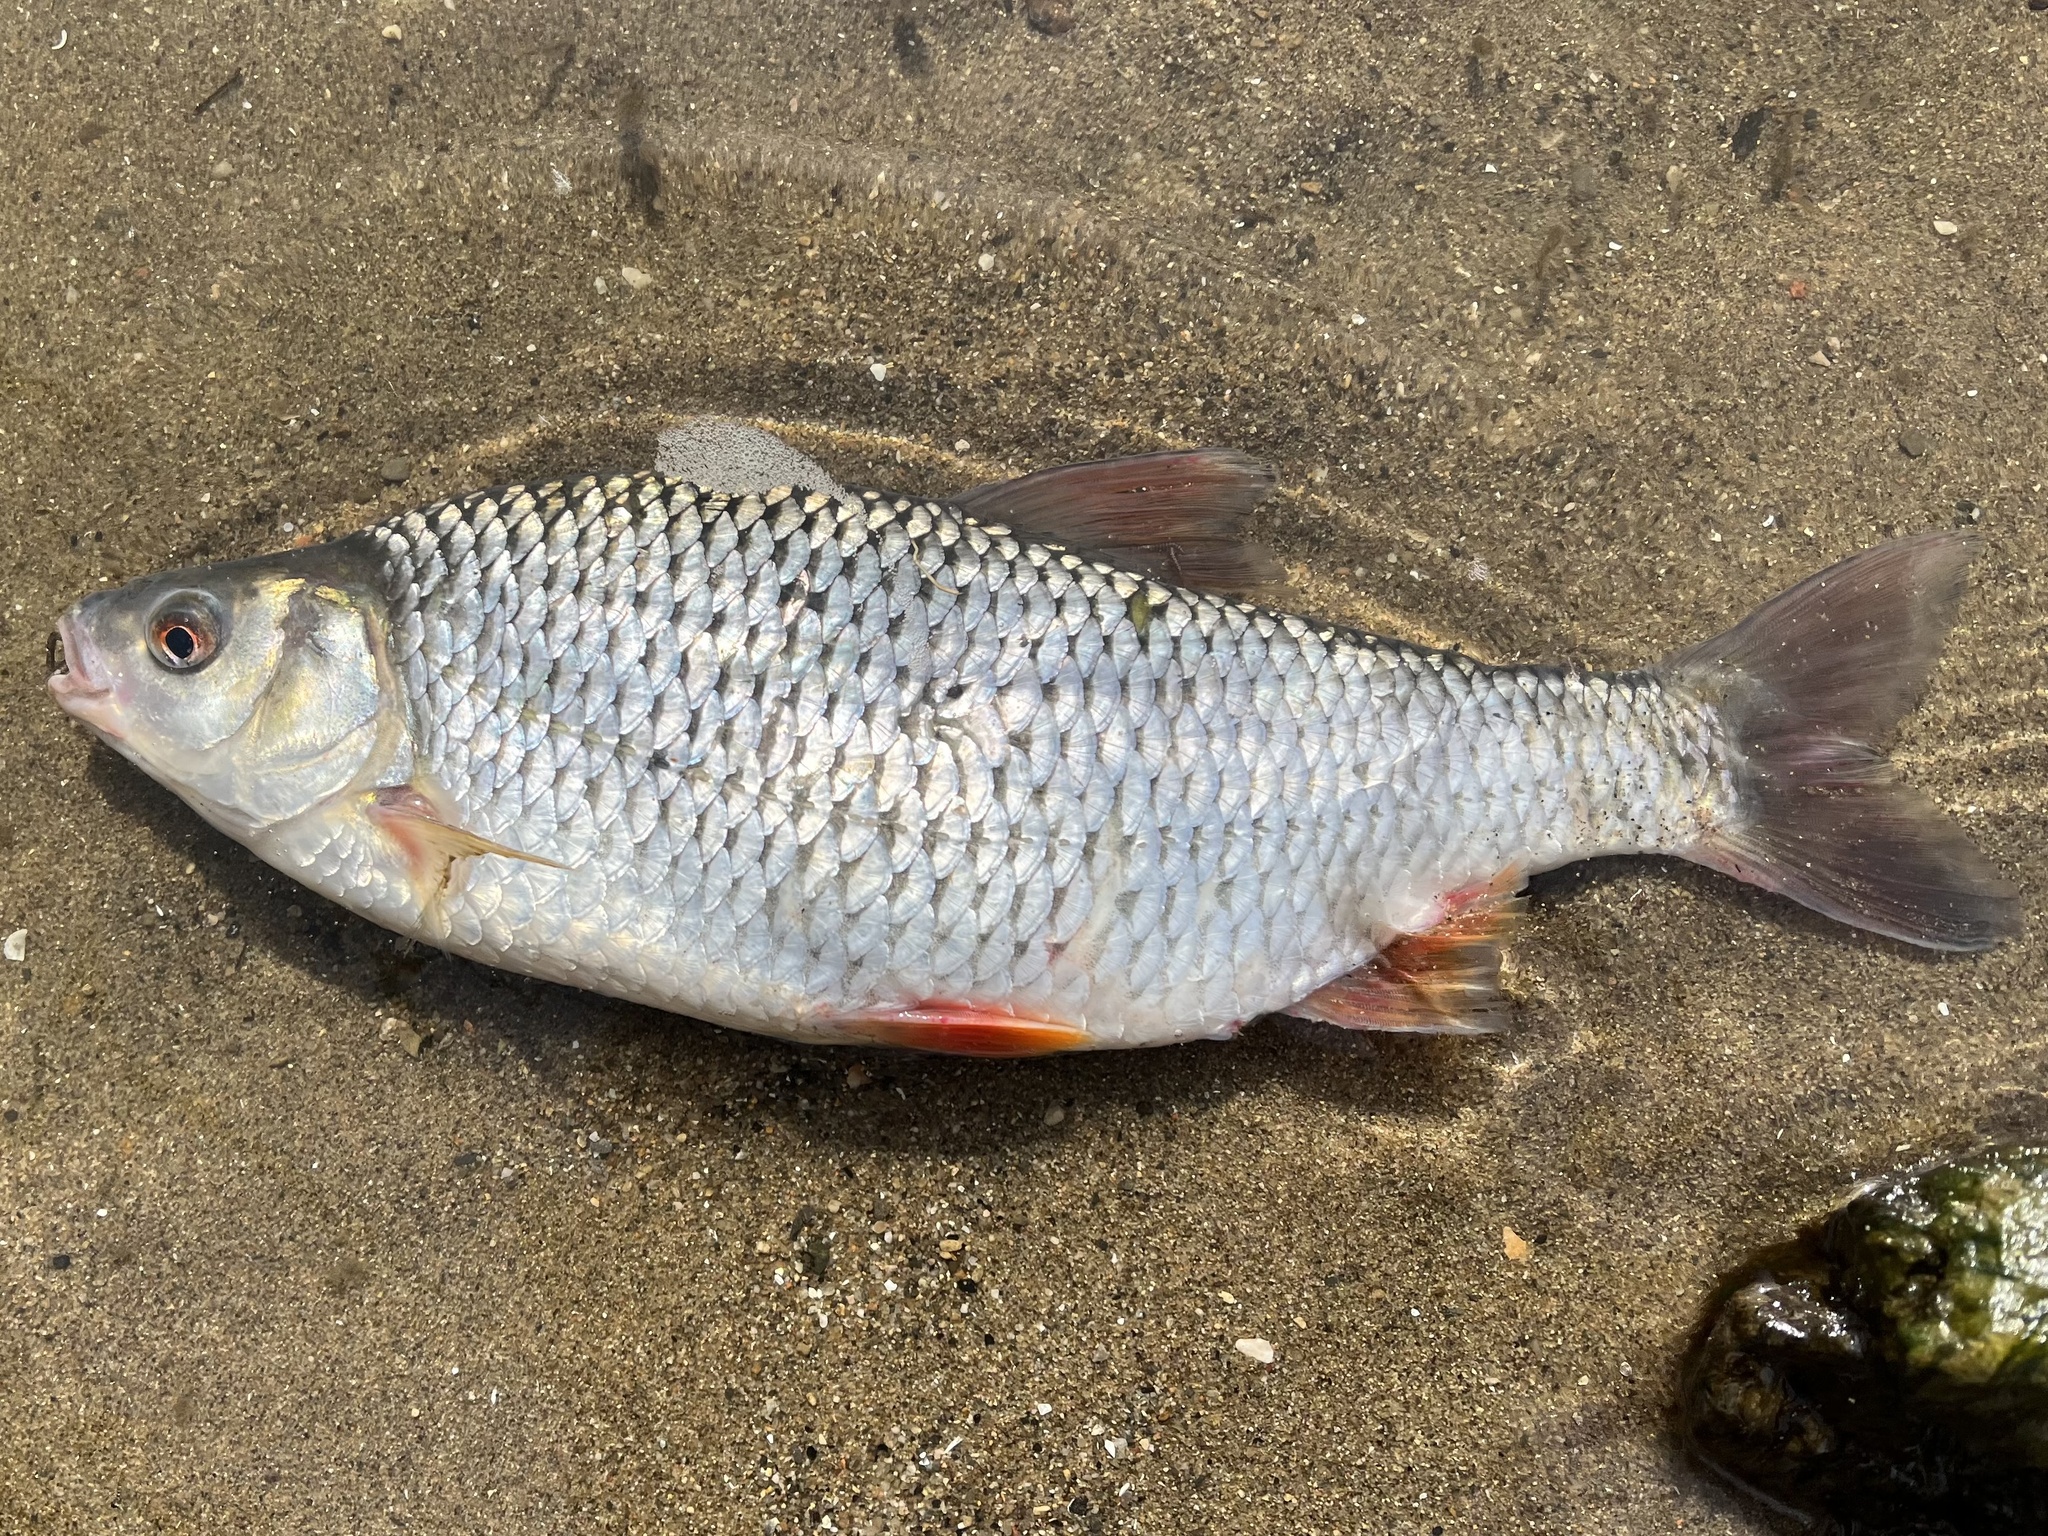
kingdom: Animalia
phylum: Chordata
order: Cypriniformes
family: Cyprinidae
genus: Scardinius
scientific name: Scardinius erythrophthalmus
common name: Rudd
